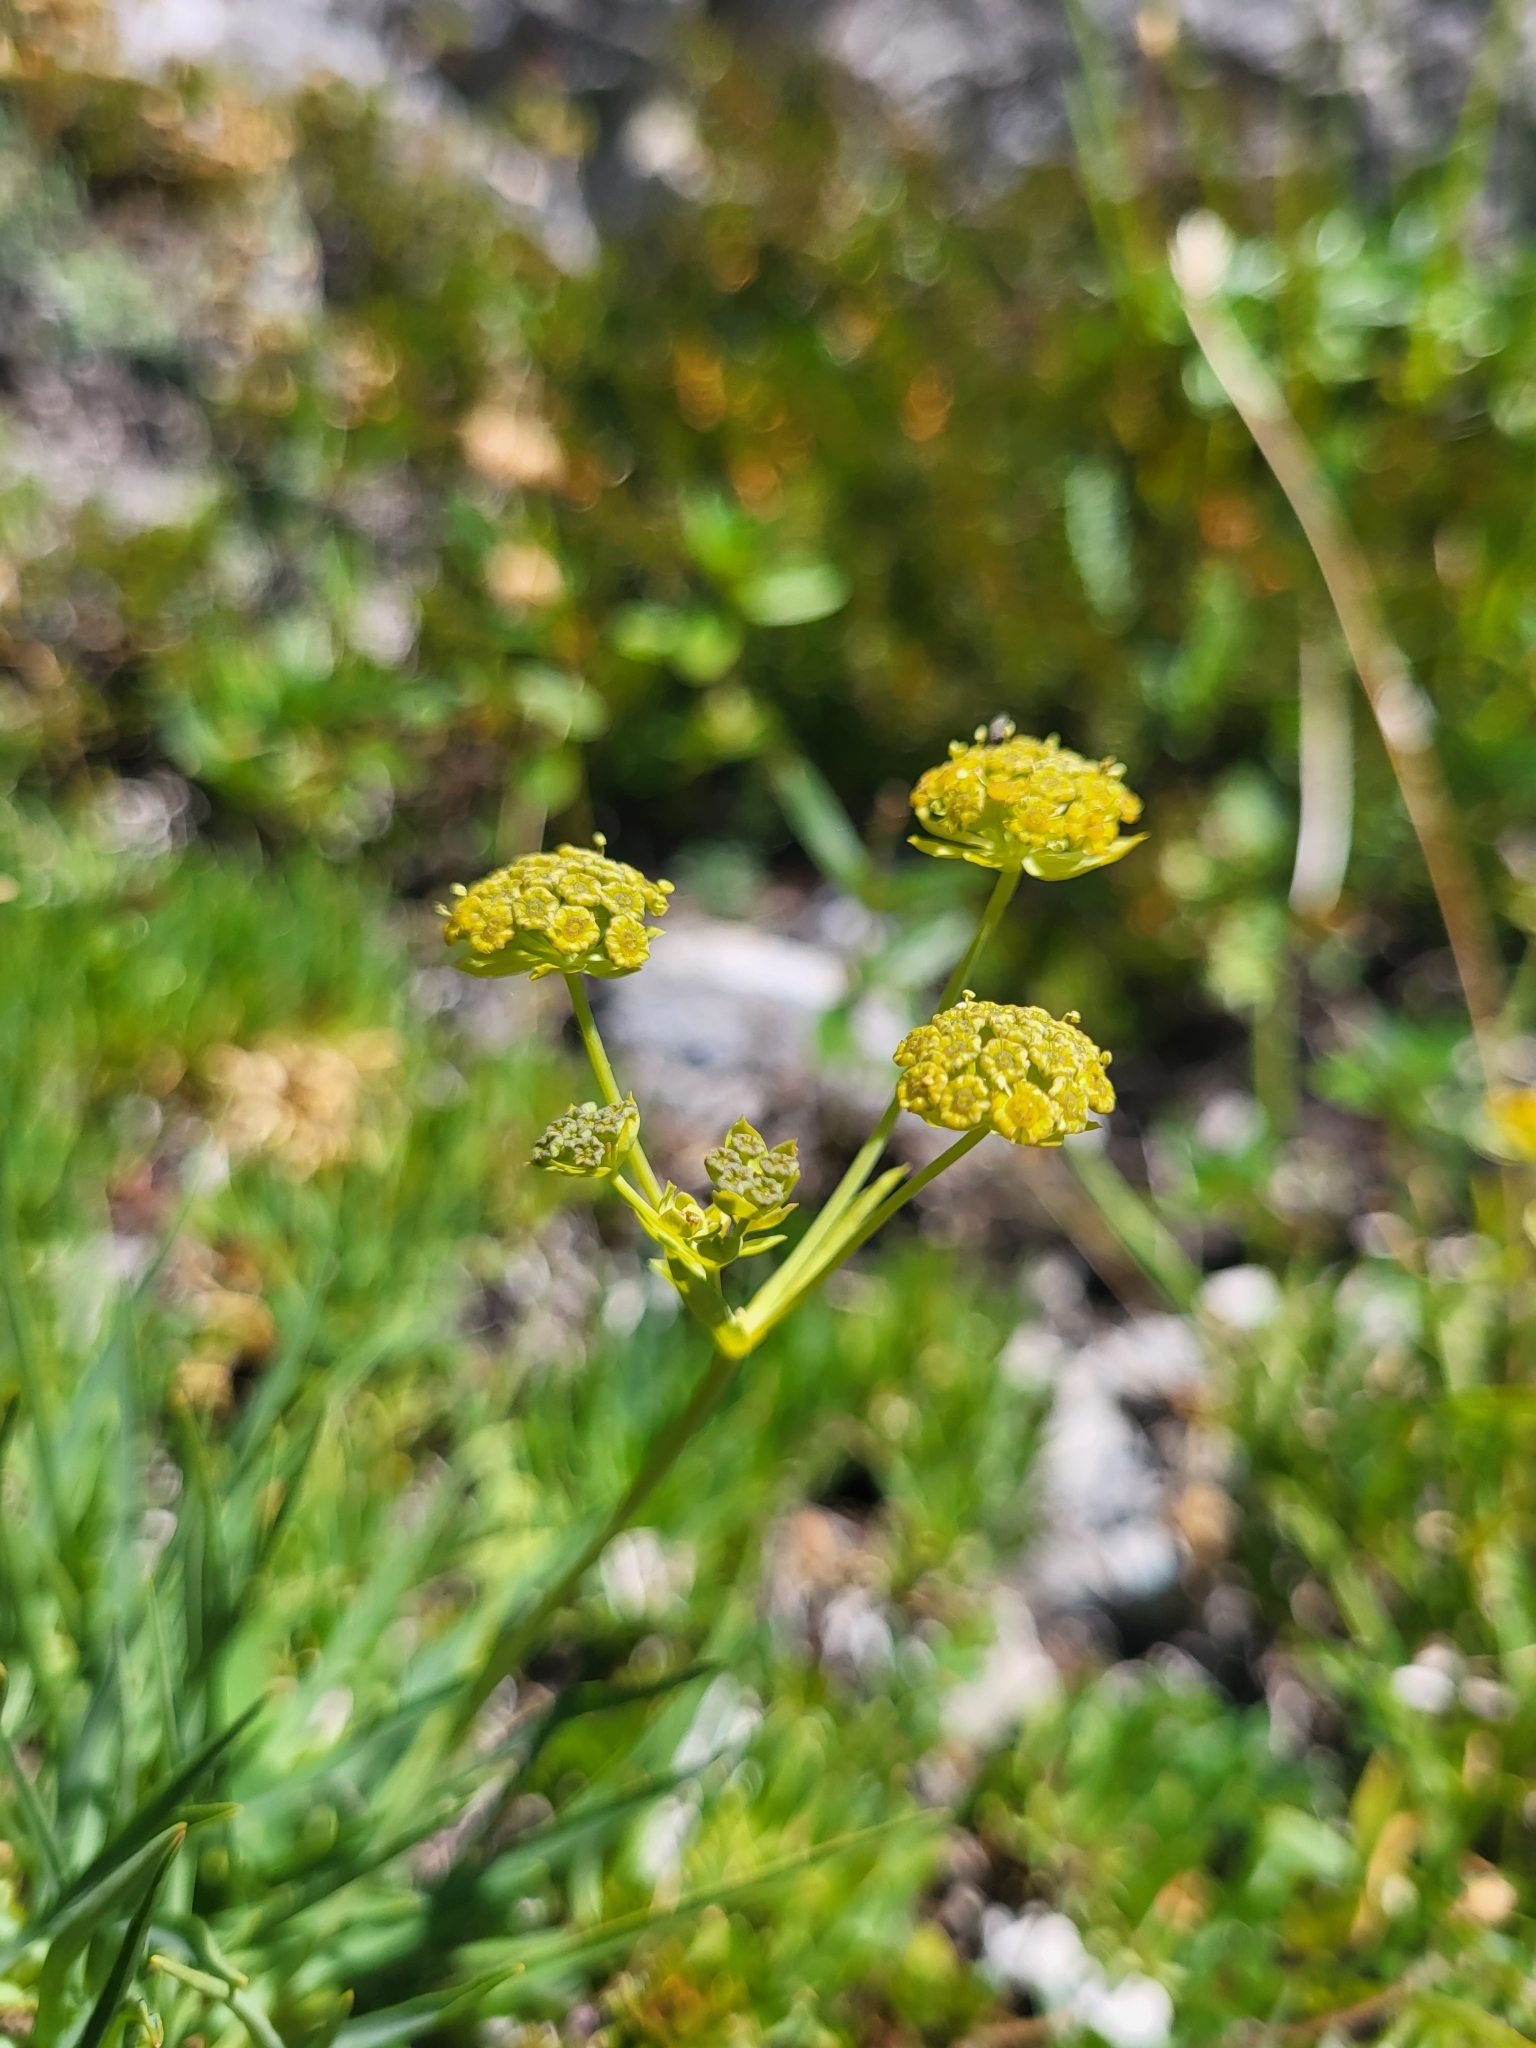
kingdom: Plantae
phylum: Tracheophyta
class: Magnoliopsida
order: Apiales
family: Apiaceae
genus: Bupleurum
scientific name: Bupleurum petraeum
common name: Rock hare's-ear
